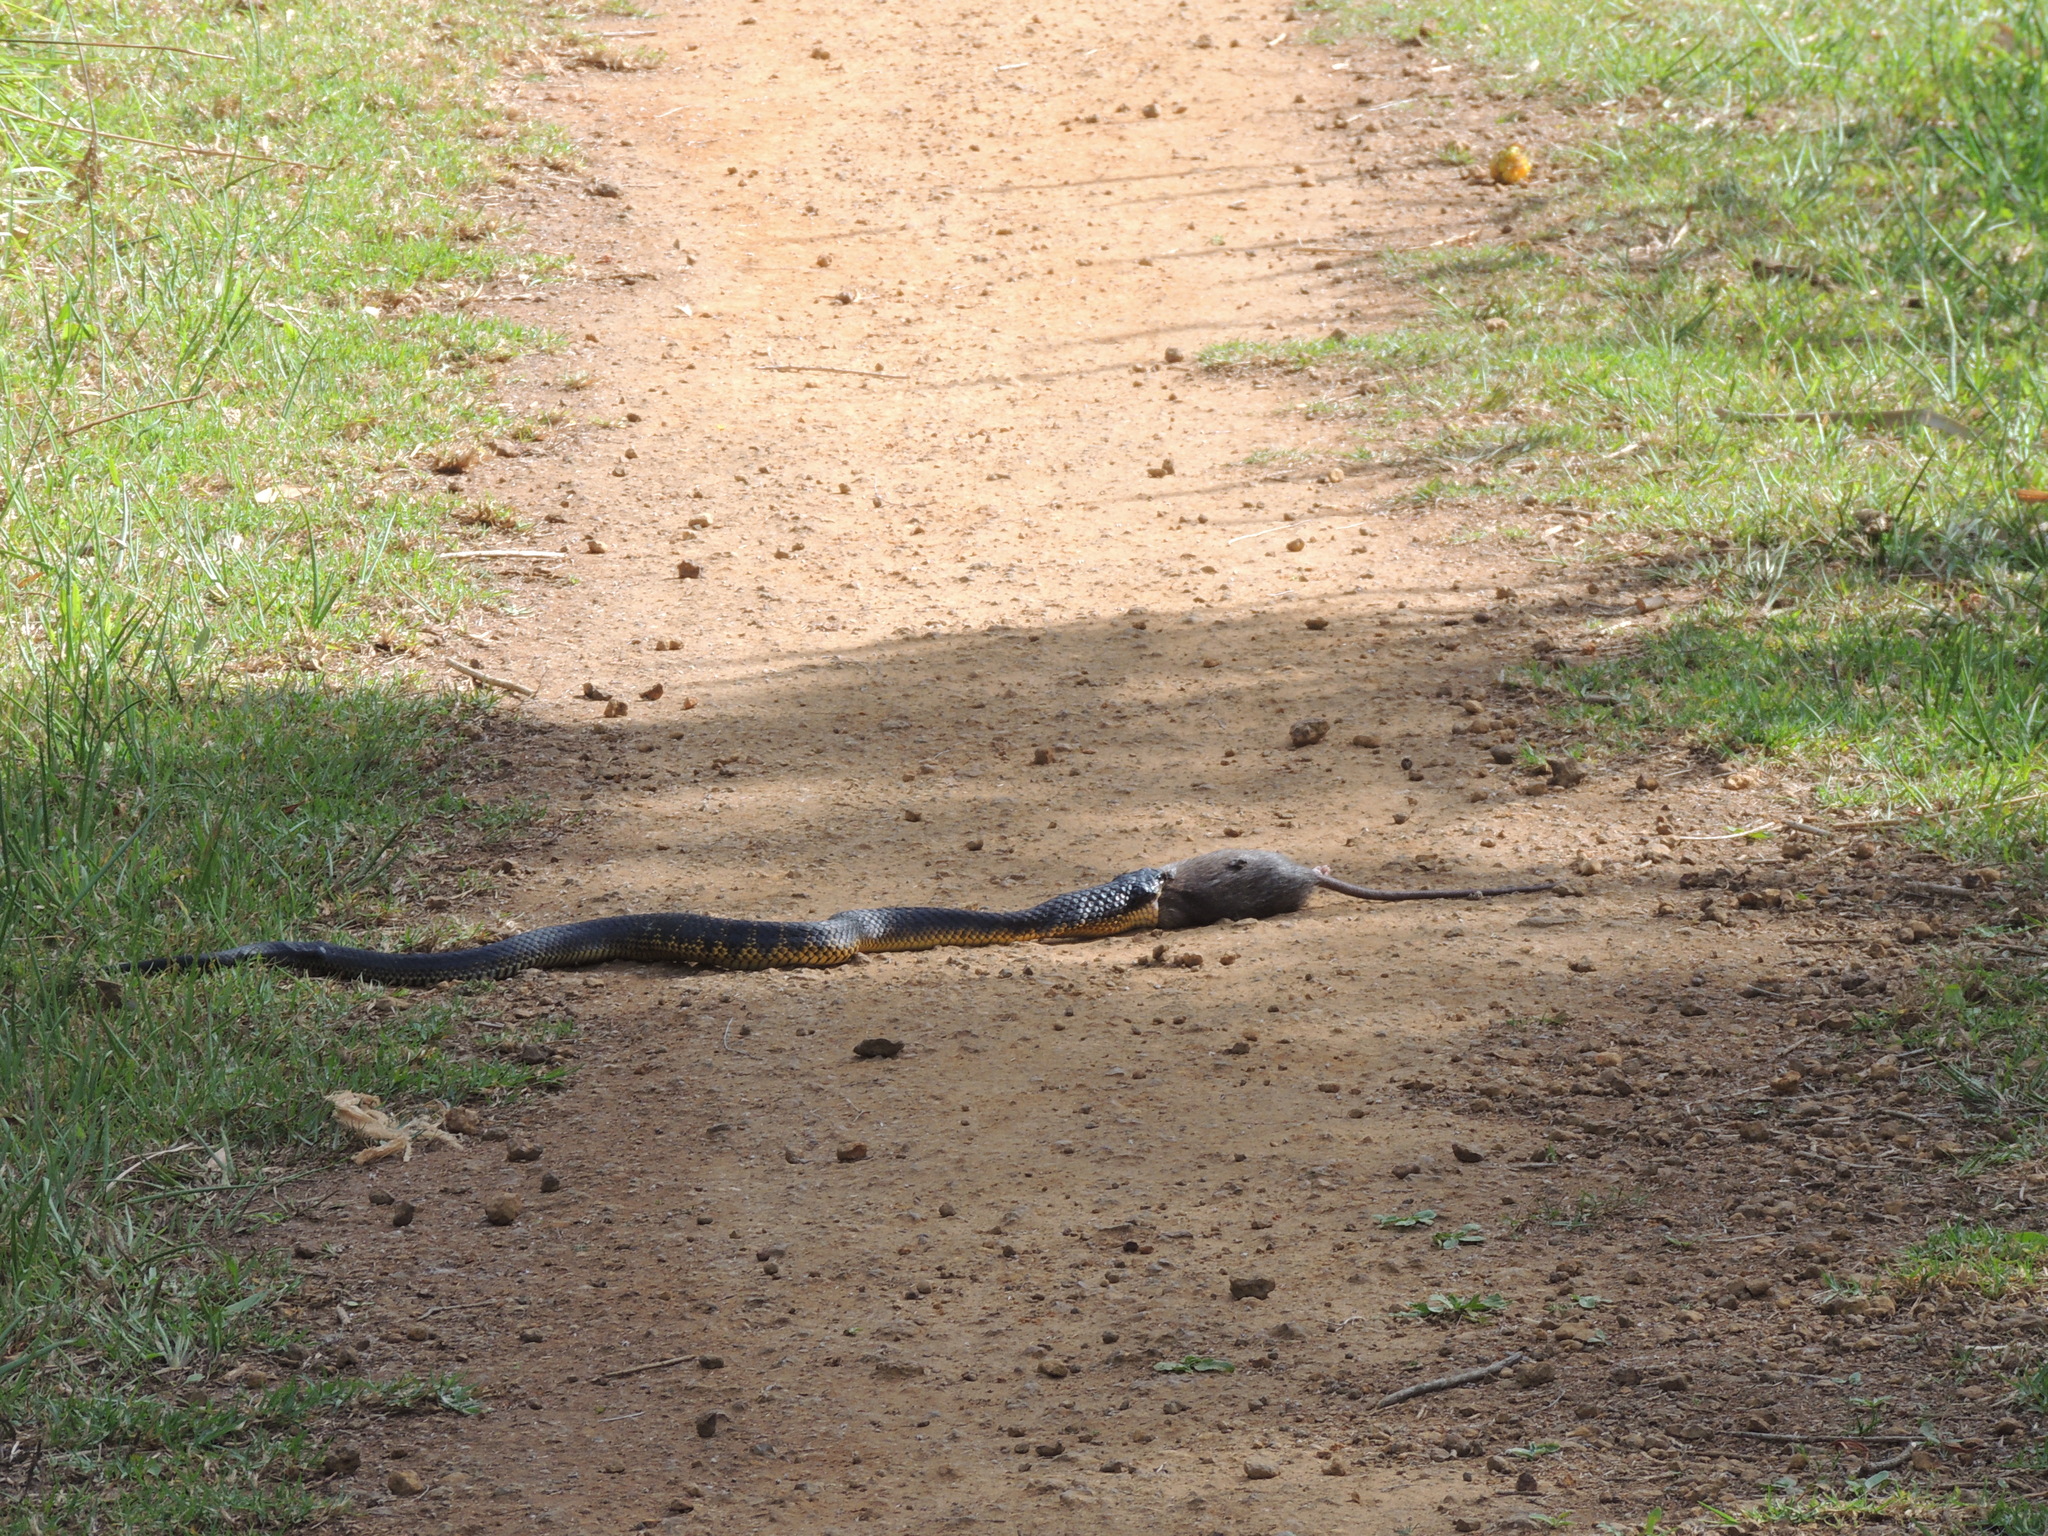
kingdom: Animalia
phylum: Chordata
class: Squamata
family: Elapidae
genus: Notechis
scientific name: Notechis scutatus
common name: Mainland tiger snake
